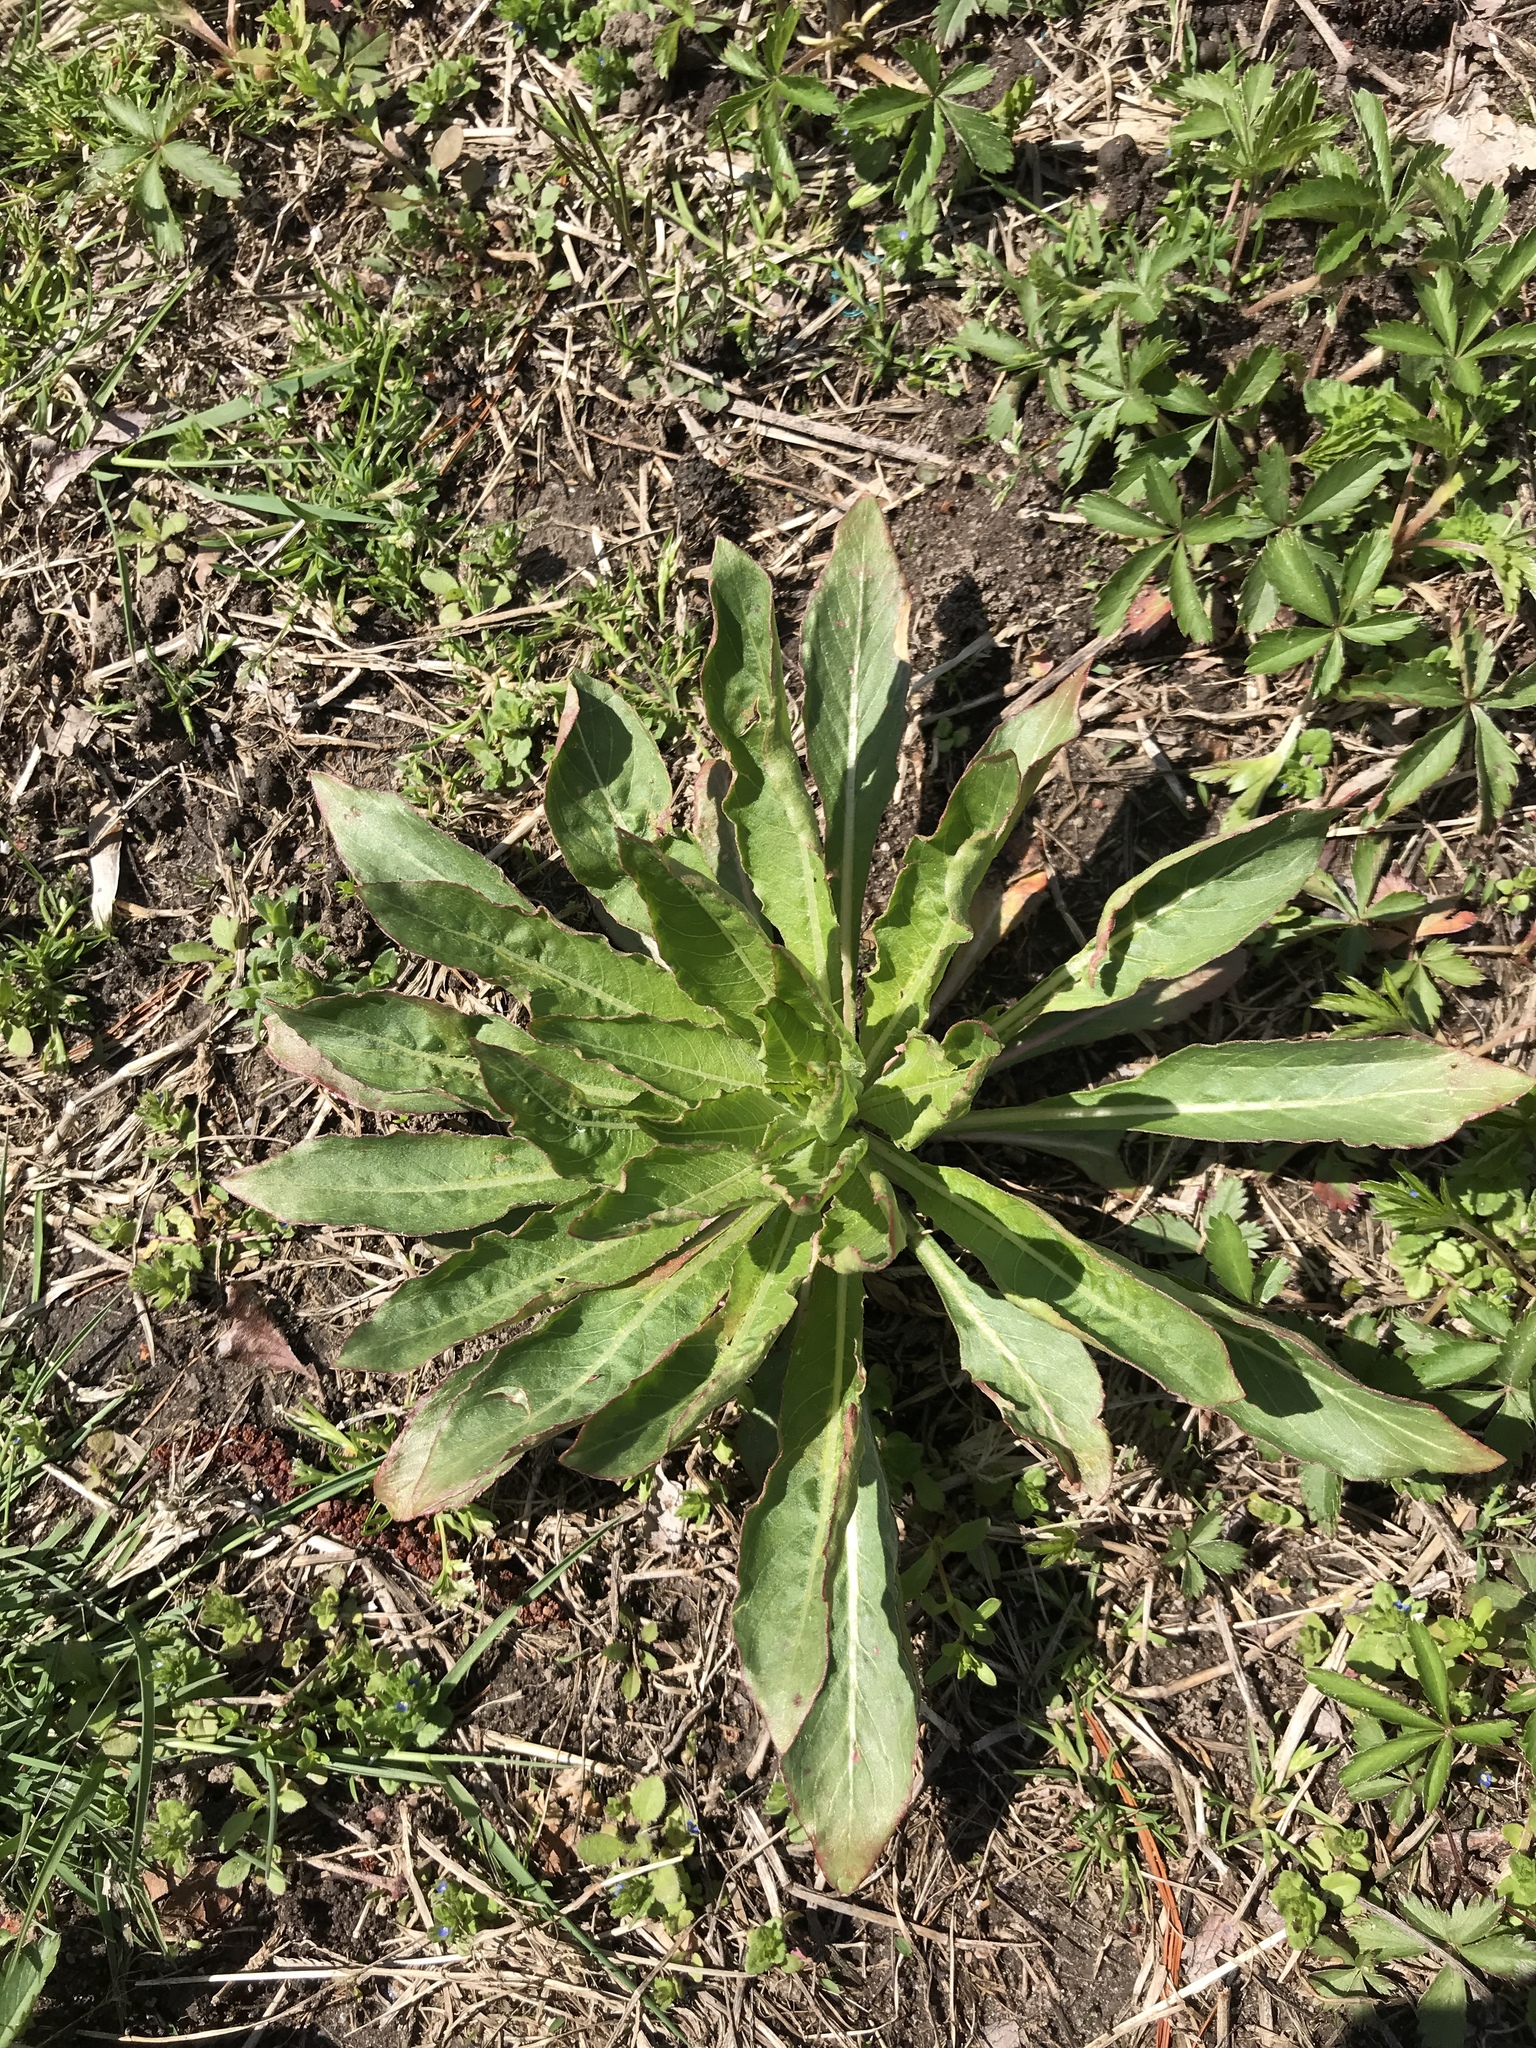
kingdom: Plantae
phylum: Tracheophyta
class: Magnoliopsida
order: Myrtales
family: Onagraceae
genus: Oenothera
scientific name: Oenothera biennis
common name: Common evening-primrose
